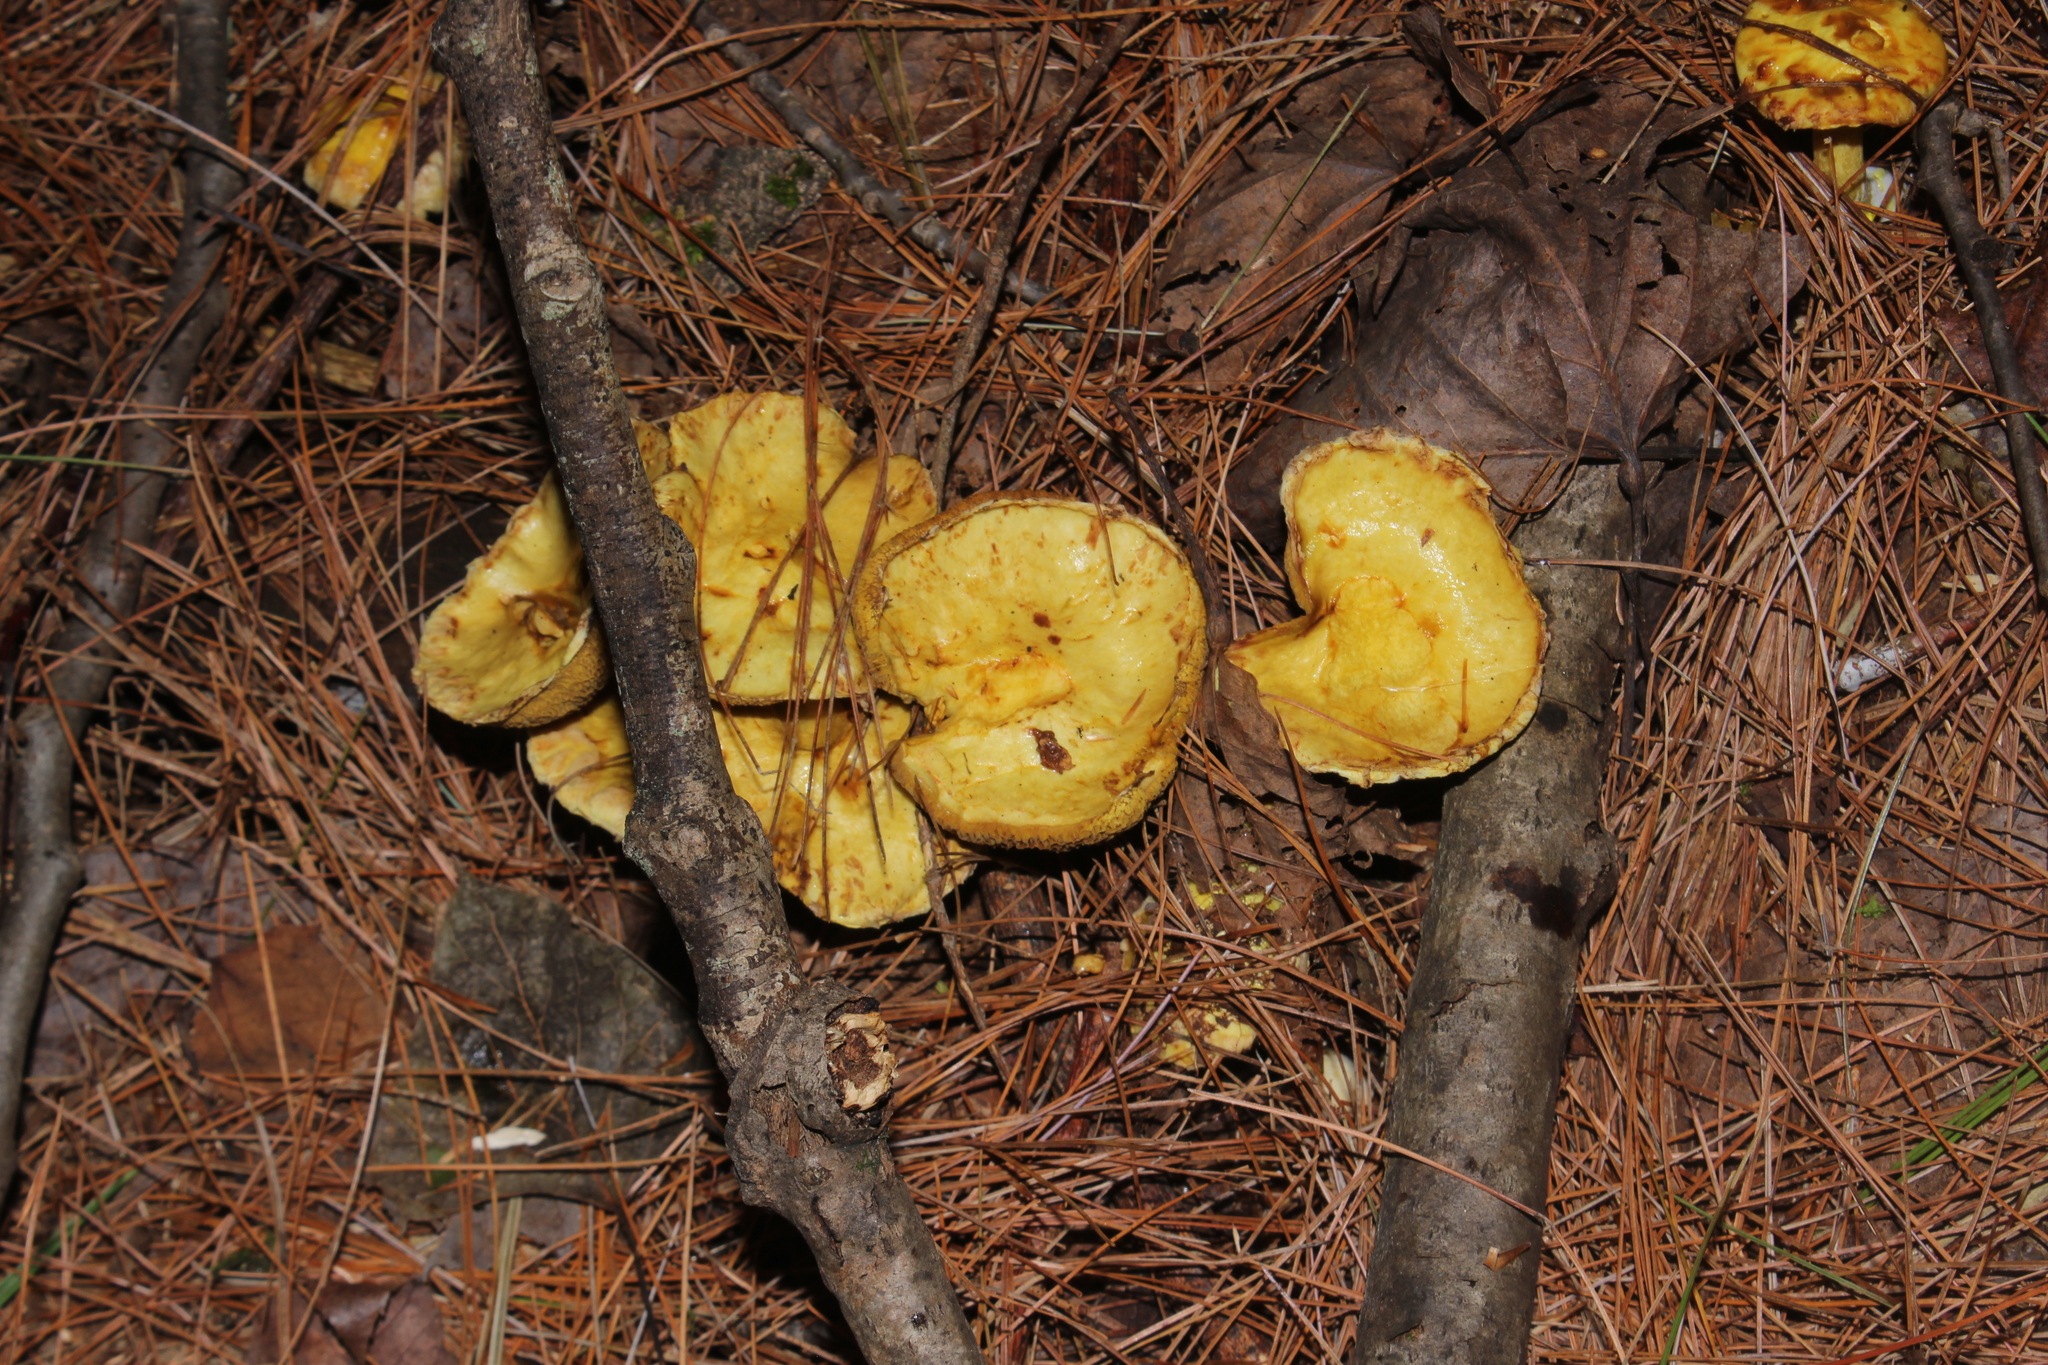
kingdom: Fungi
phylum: Basidiomycota
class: Agaricomycetes
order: Boletales
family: Suillaceae
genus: Suillus
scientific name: Suillus americanus
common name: Chicken fat mushroom
